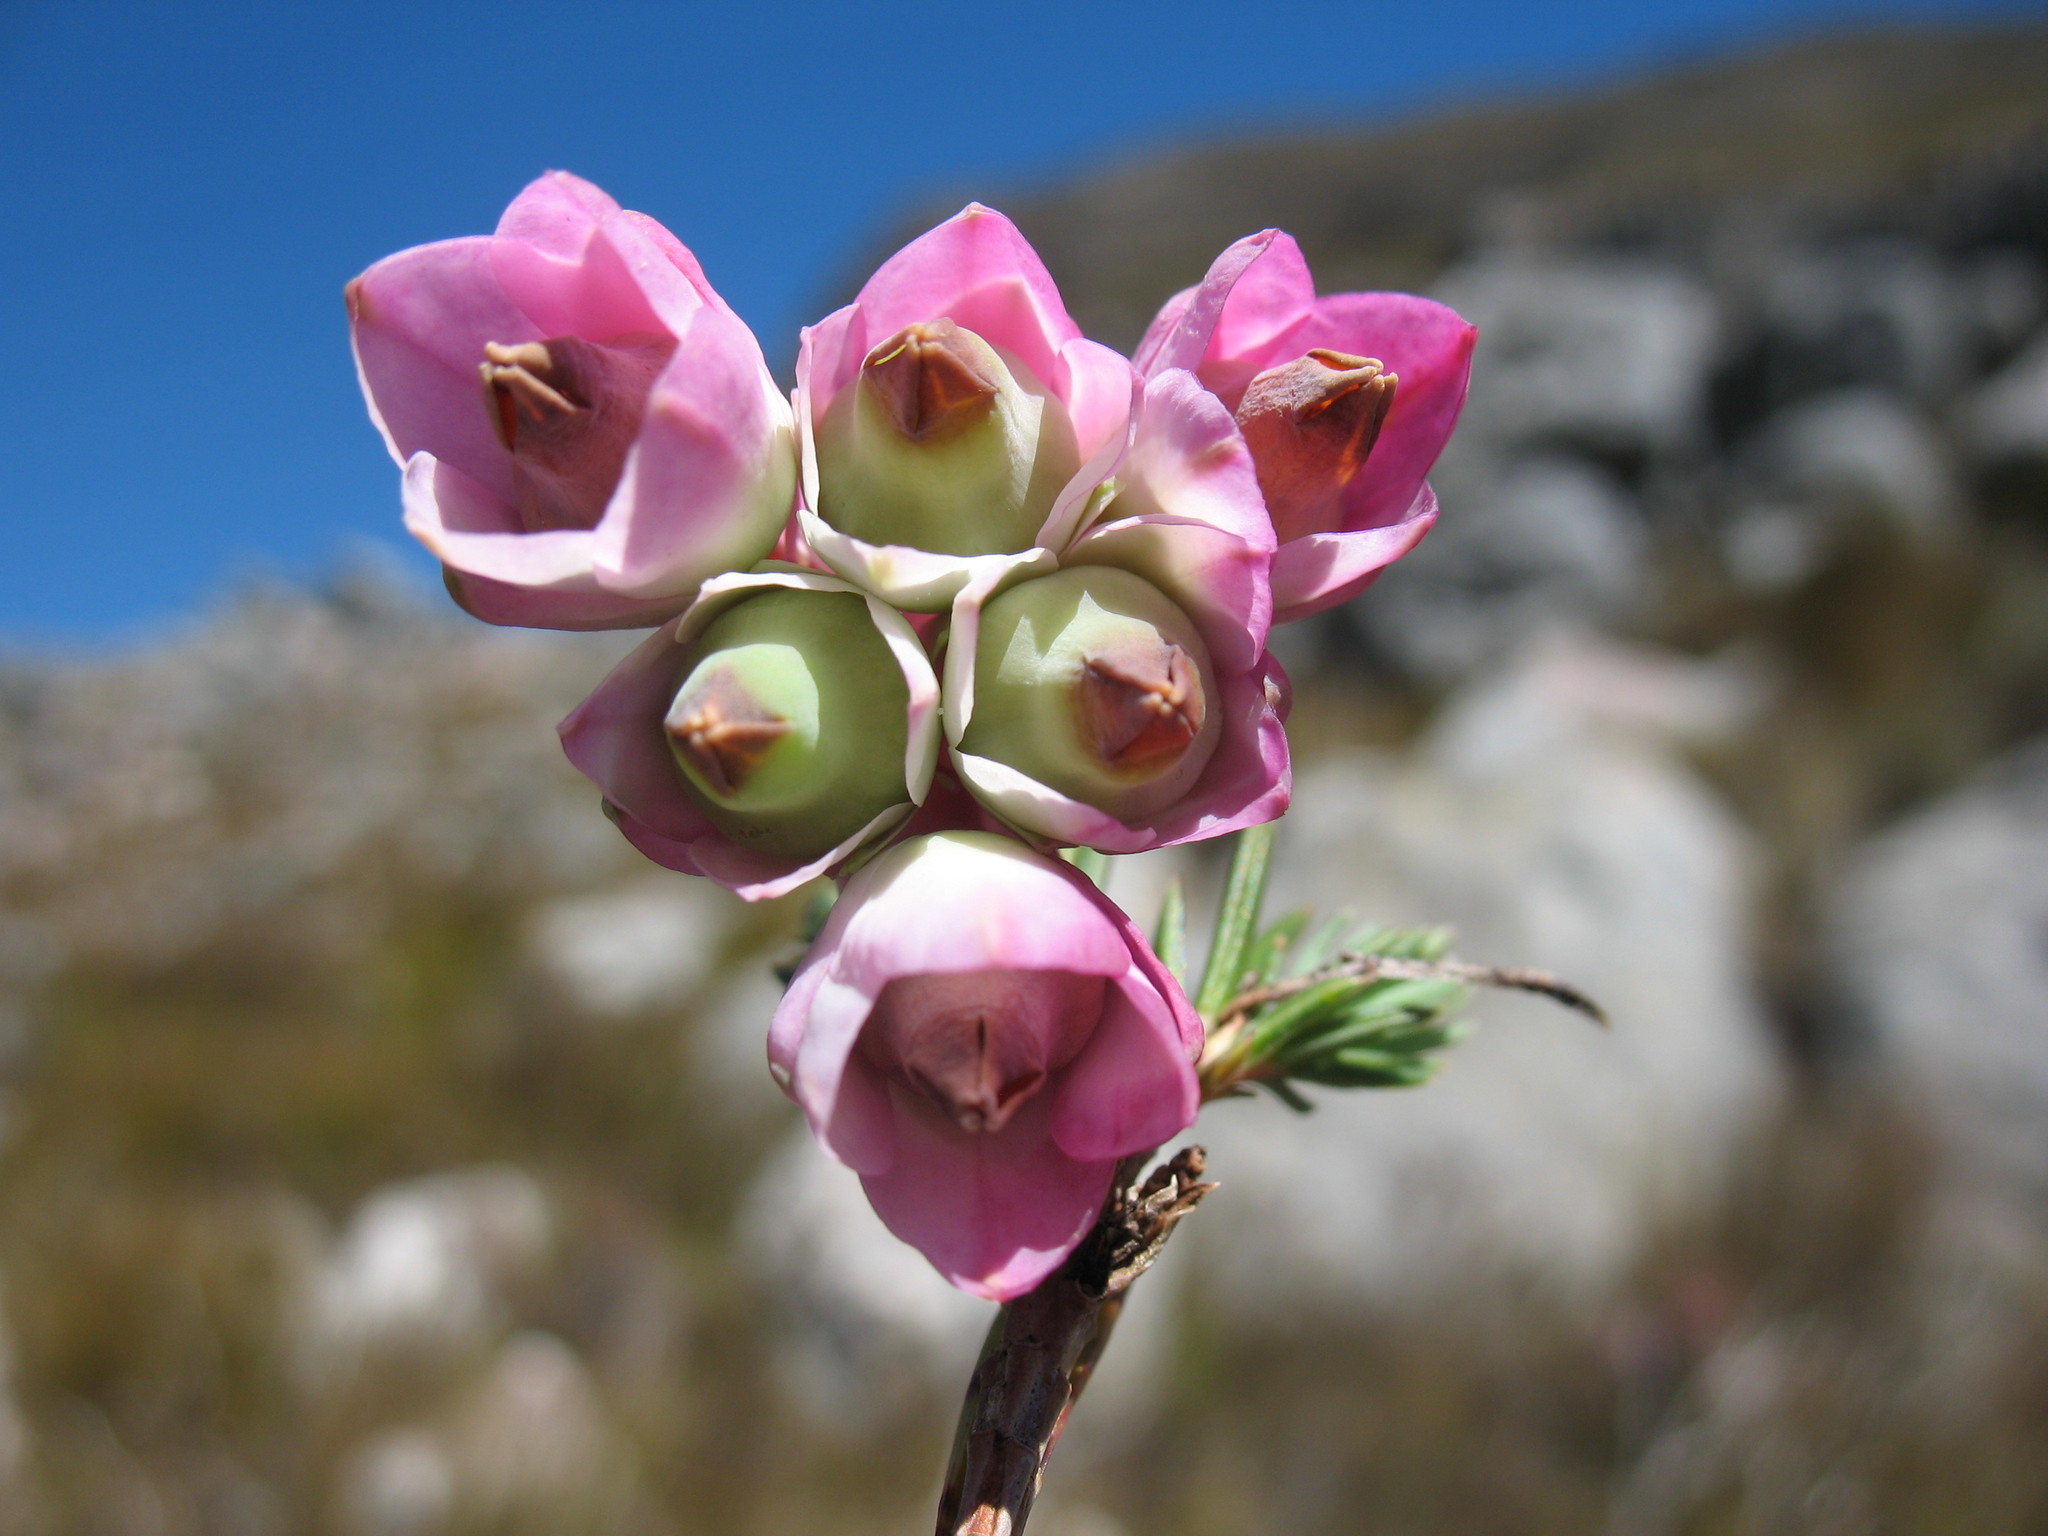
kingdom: Plantae
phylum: Tracheophyta
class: Magnoliopsida
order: Ericales
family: Ericaceae
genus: Erica
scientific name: Erica glauca
